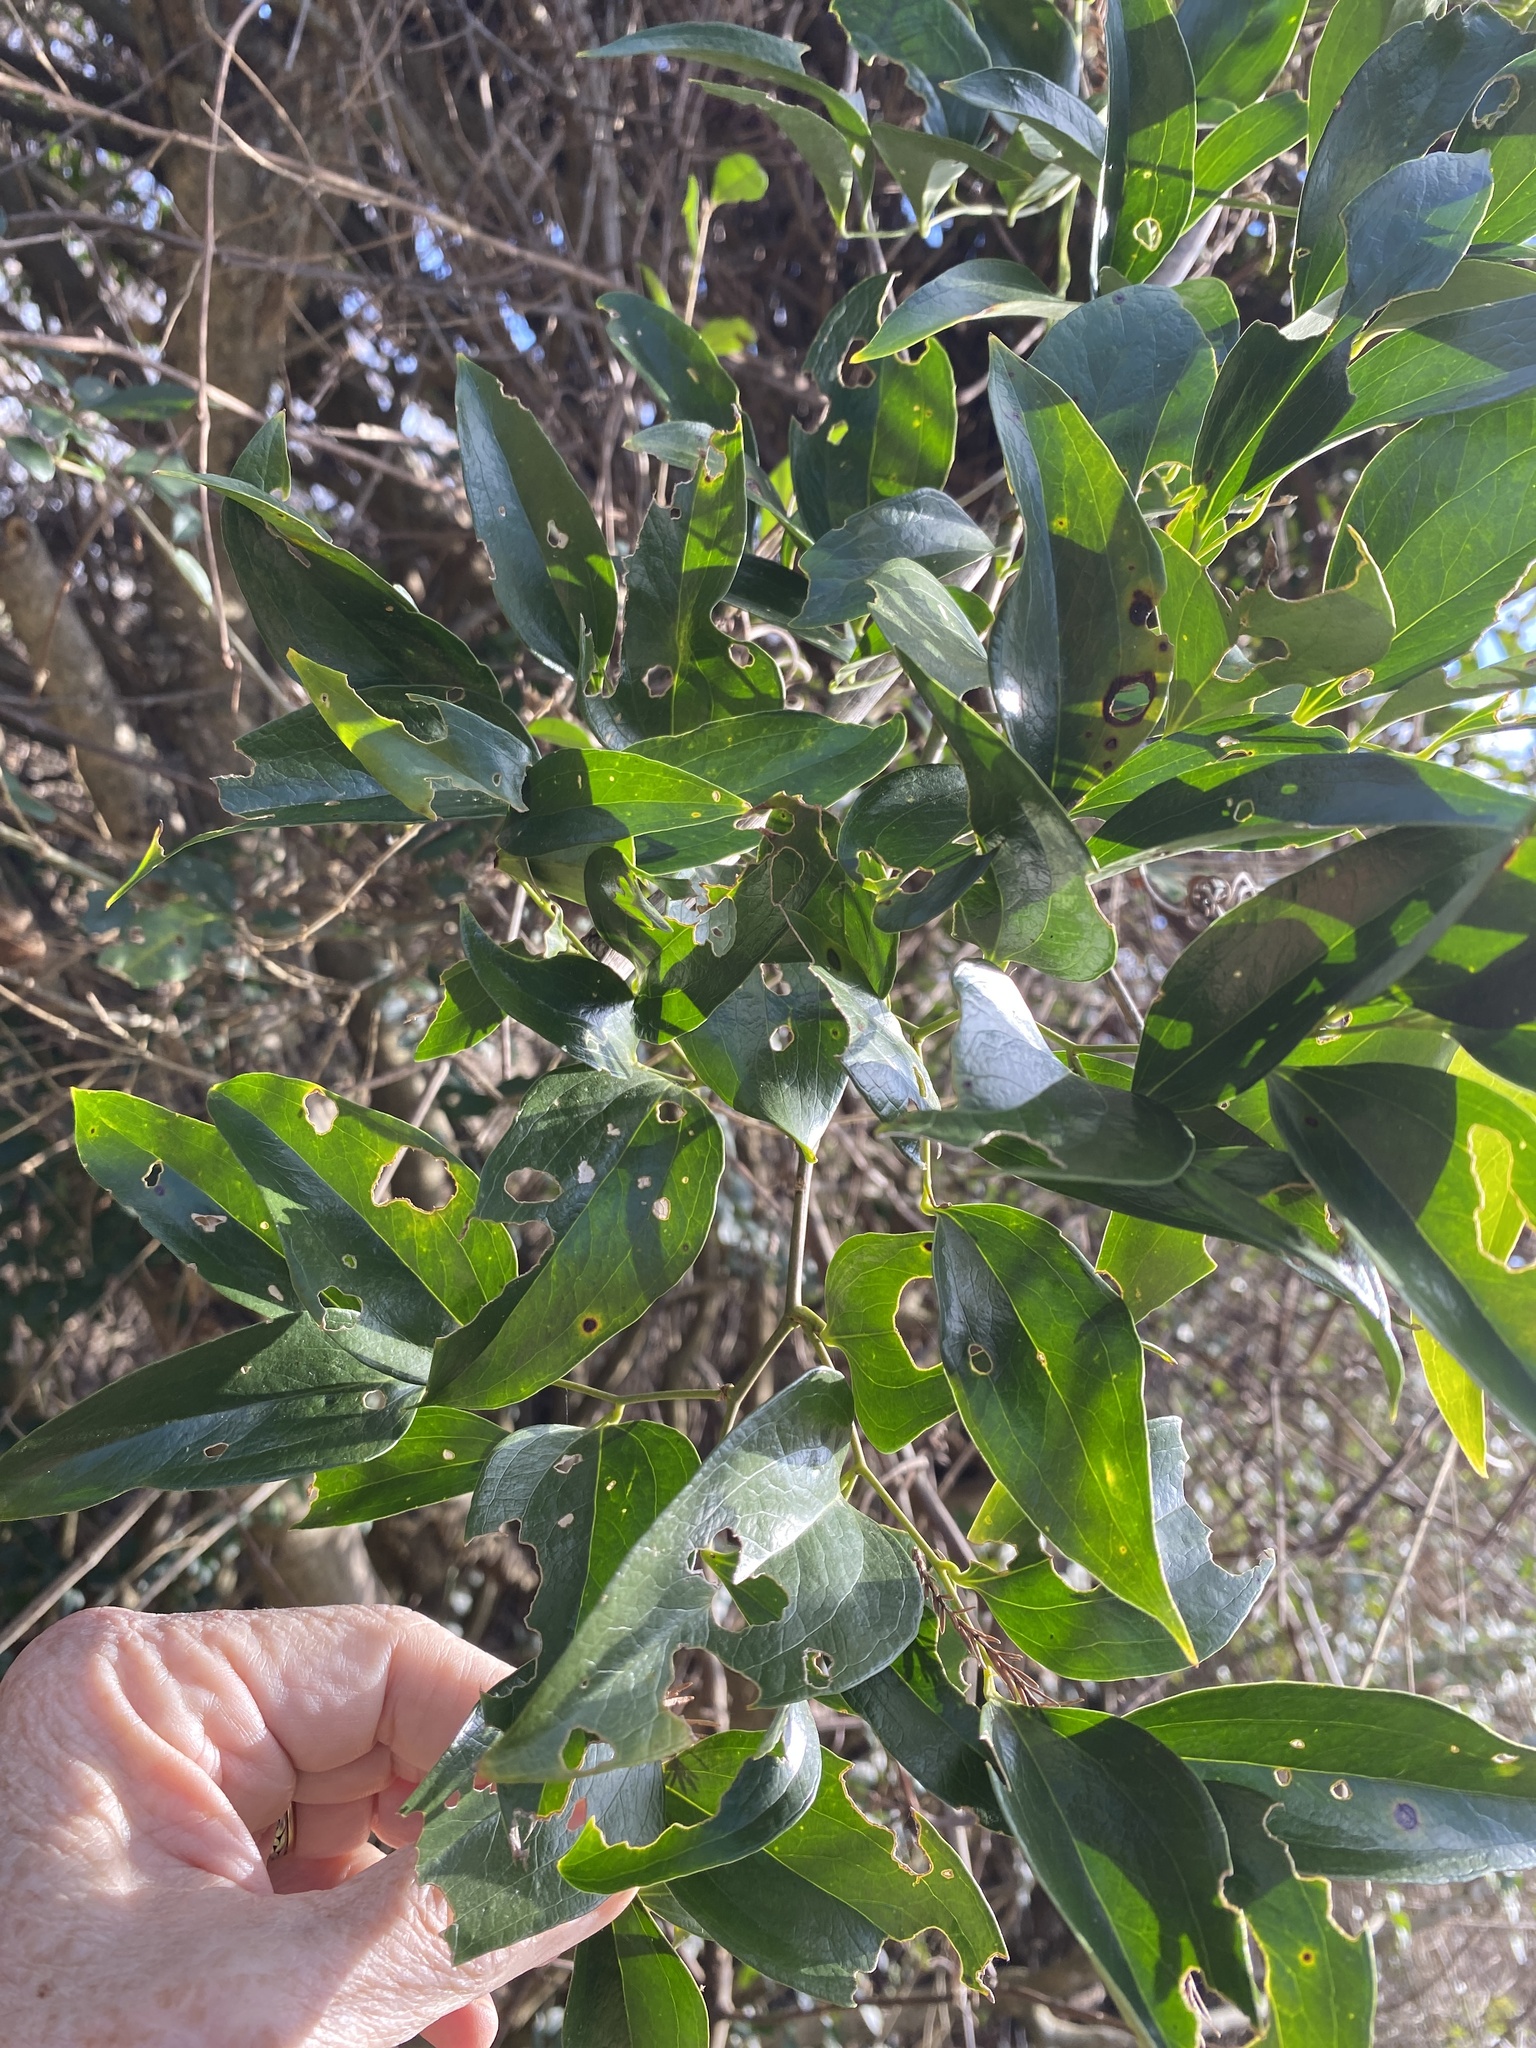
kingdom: Plantae
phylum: Tracheophyta
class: Liliopsida
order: Liliales
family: Smilacaceae
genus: Smilax
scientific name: Smilax maritima
